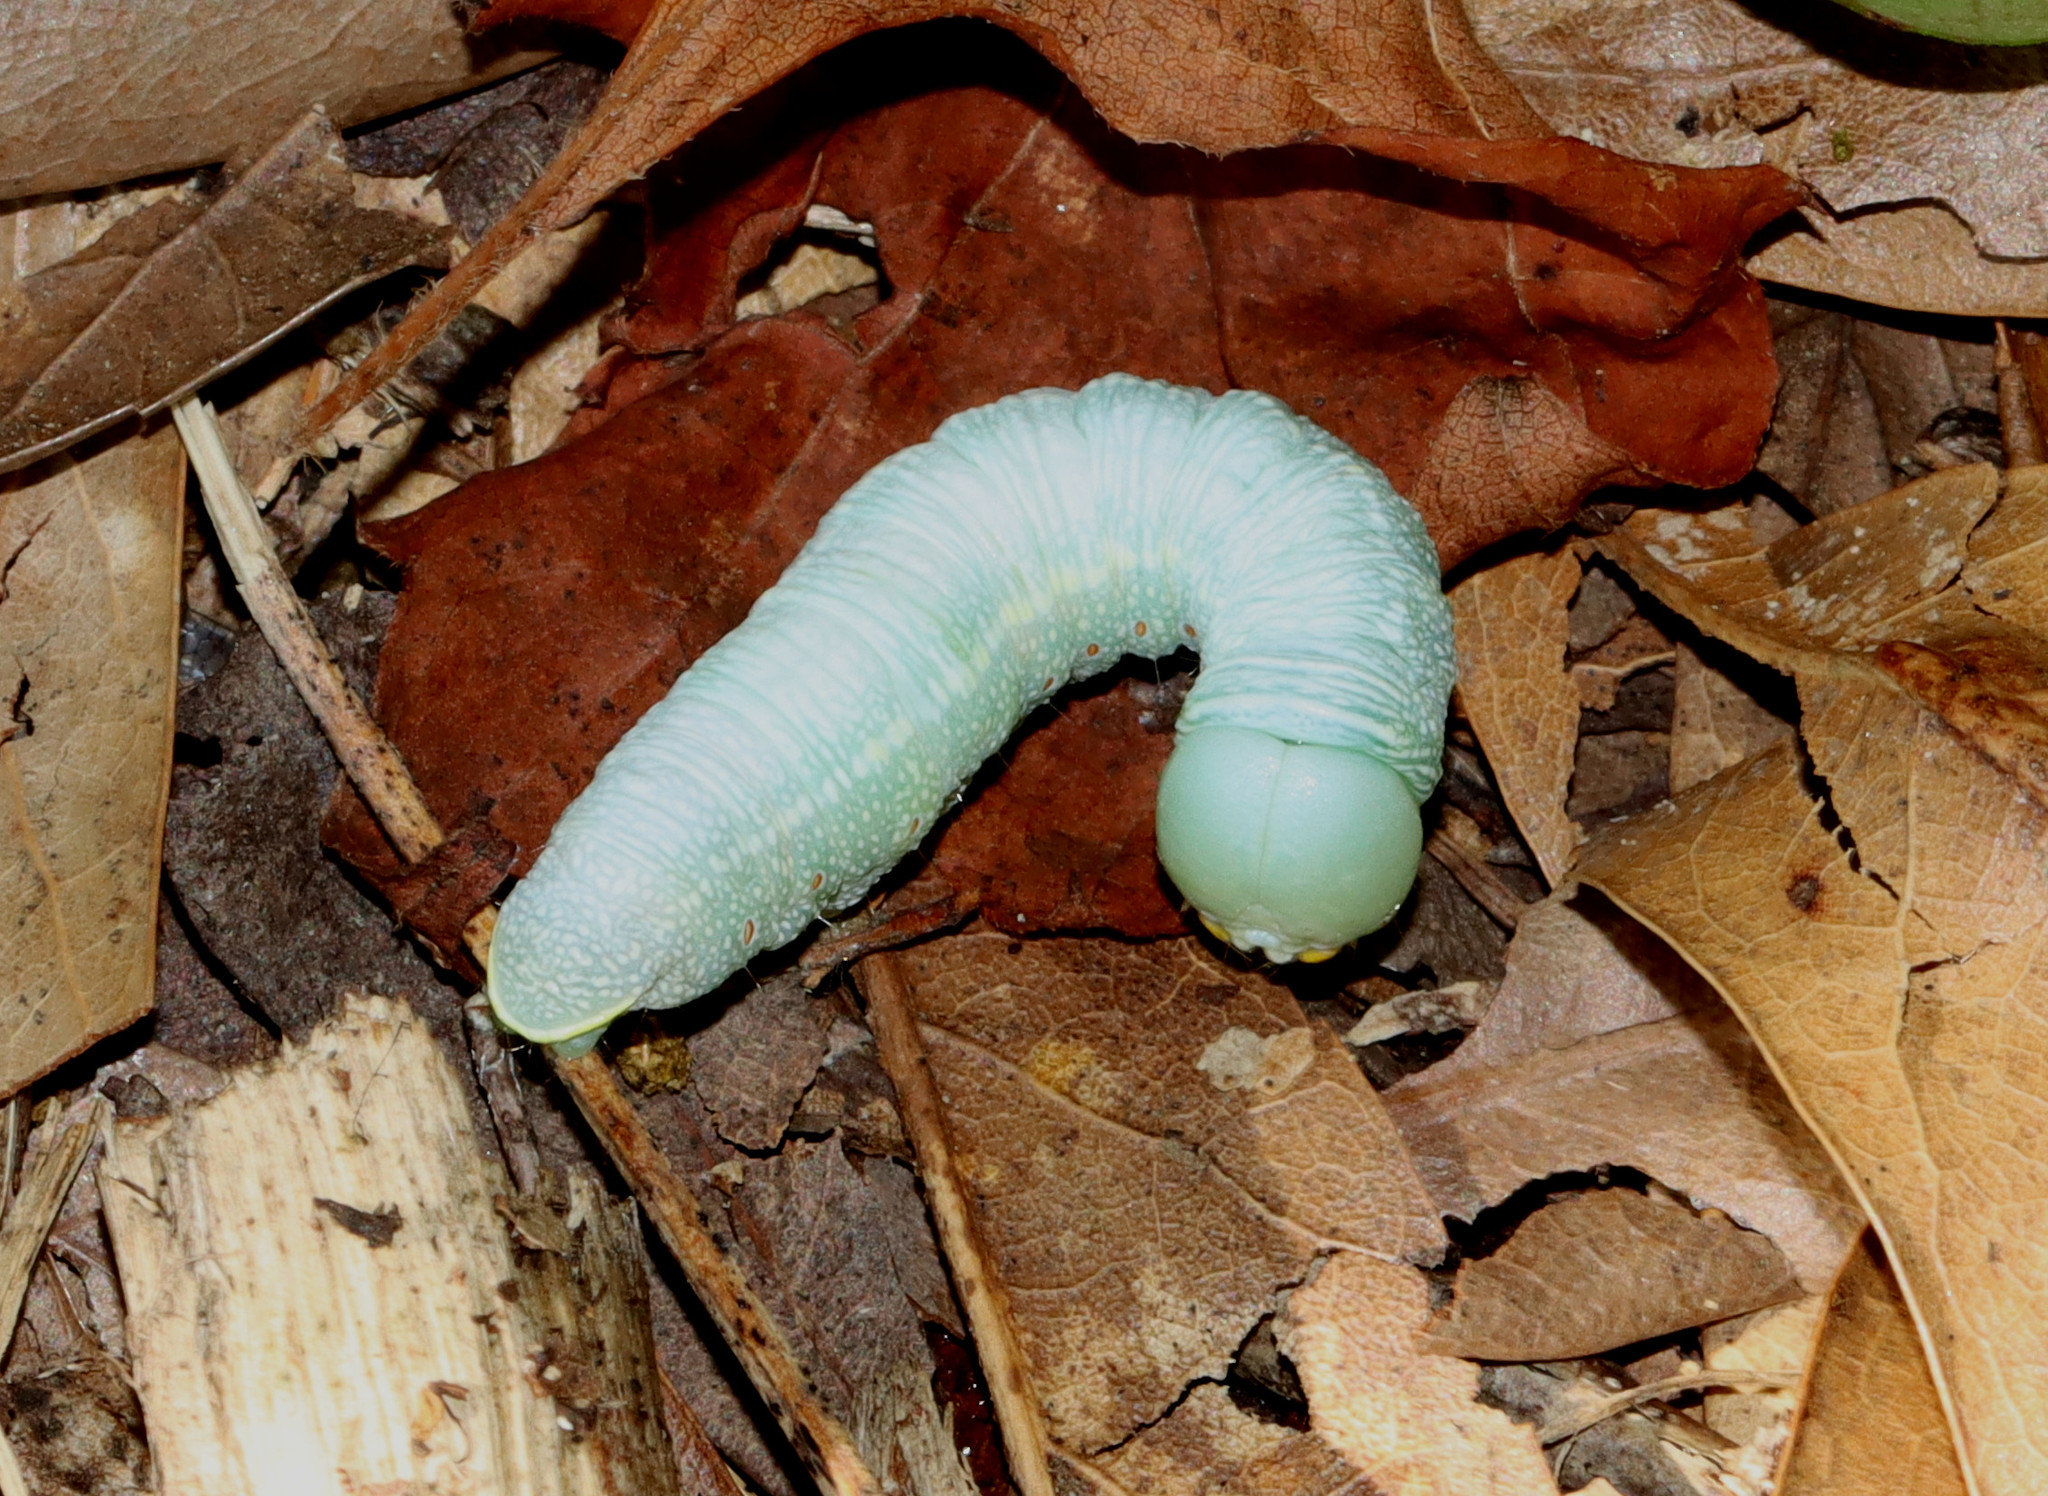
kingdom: Animalia
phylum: Arthropoda
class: Insecta
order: Lepidoptera
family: Notodontidae
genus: Nadata
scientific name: Nadata gibbosa
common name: White-dotted prominent
